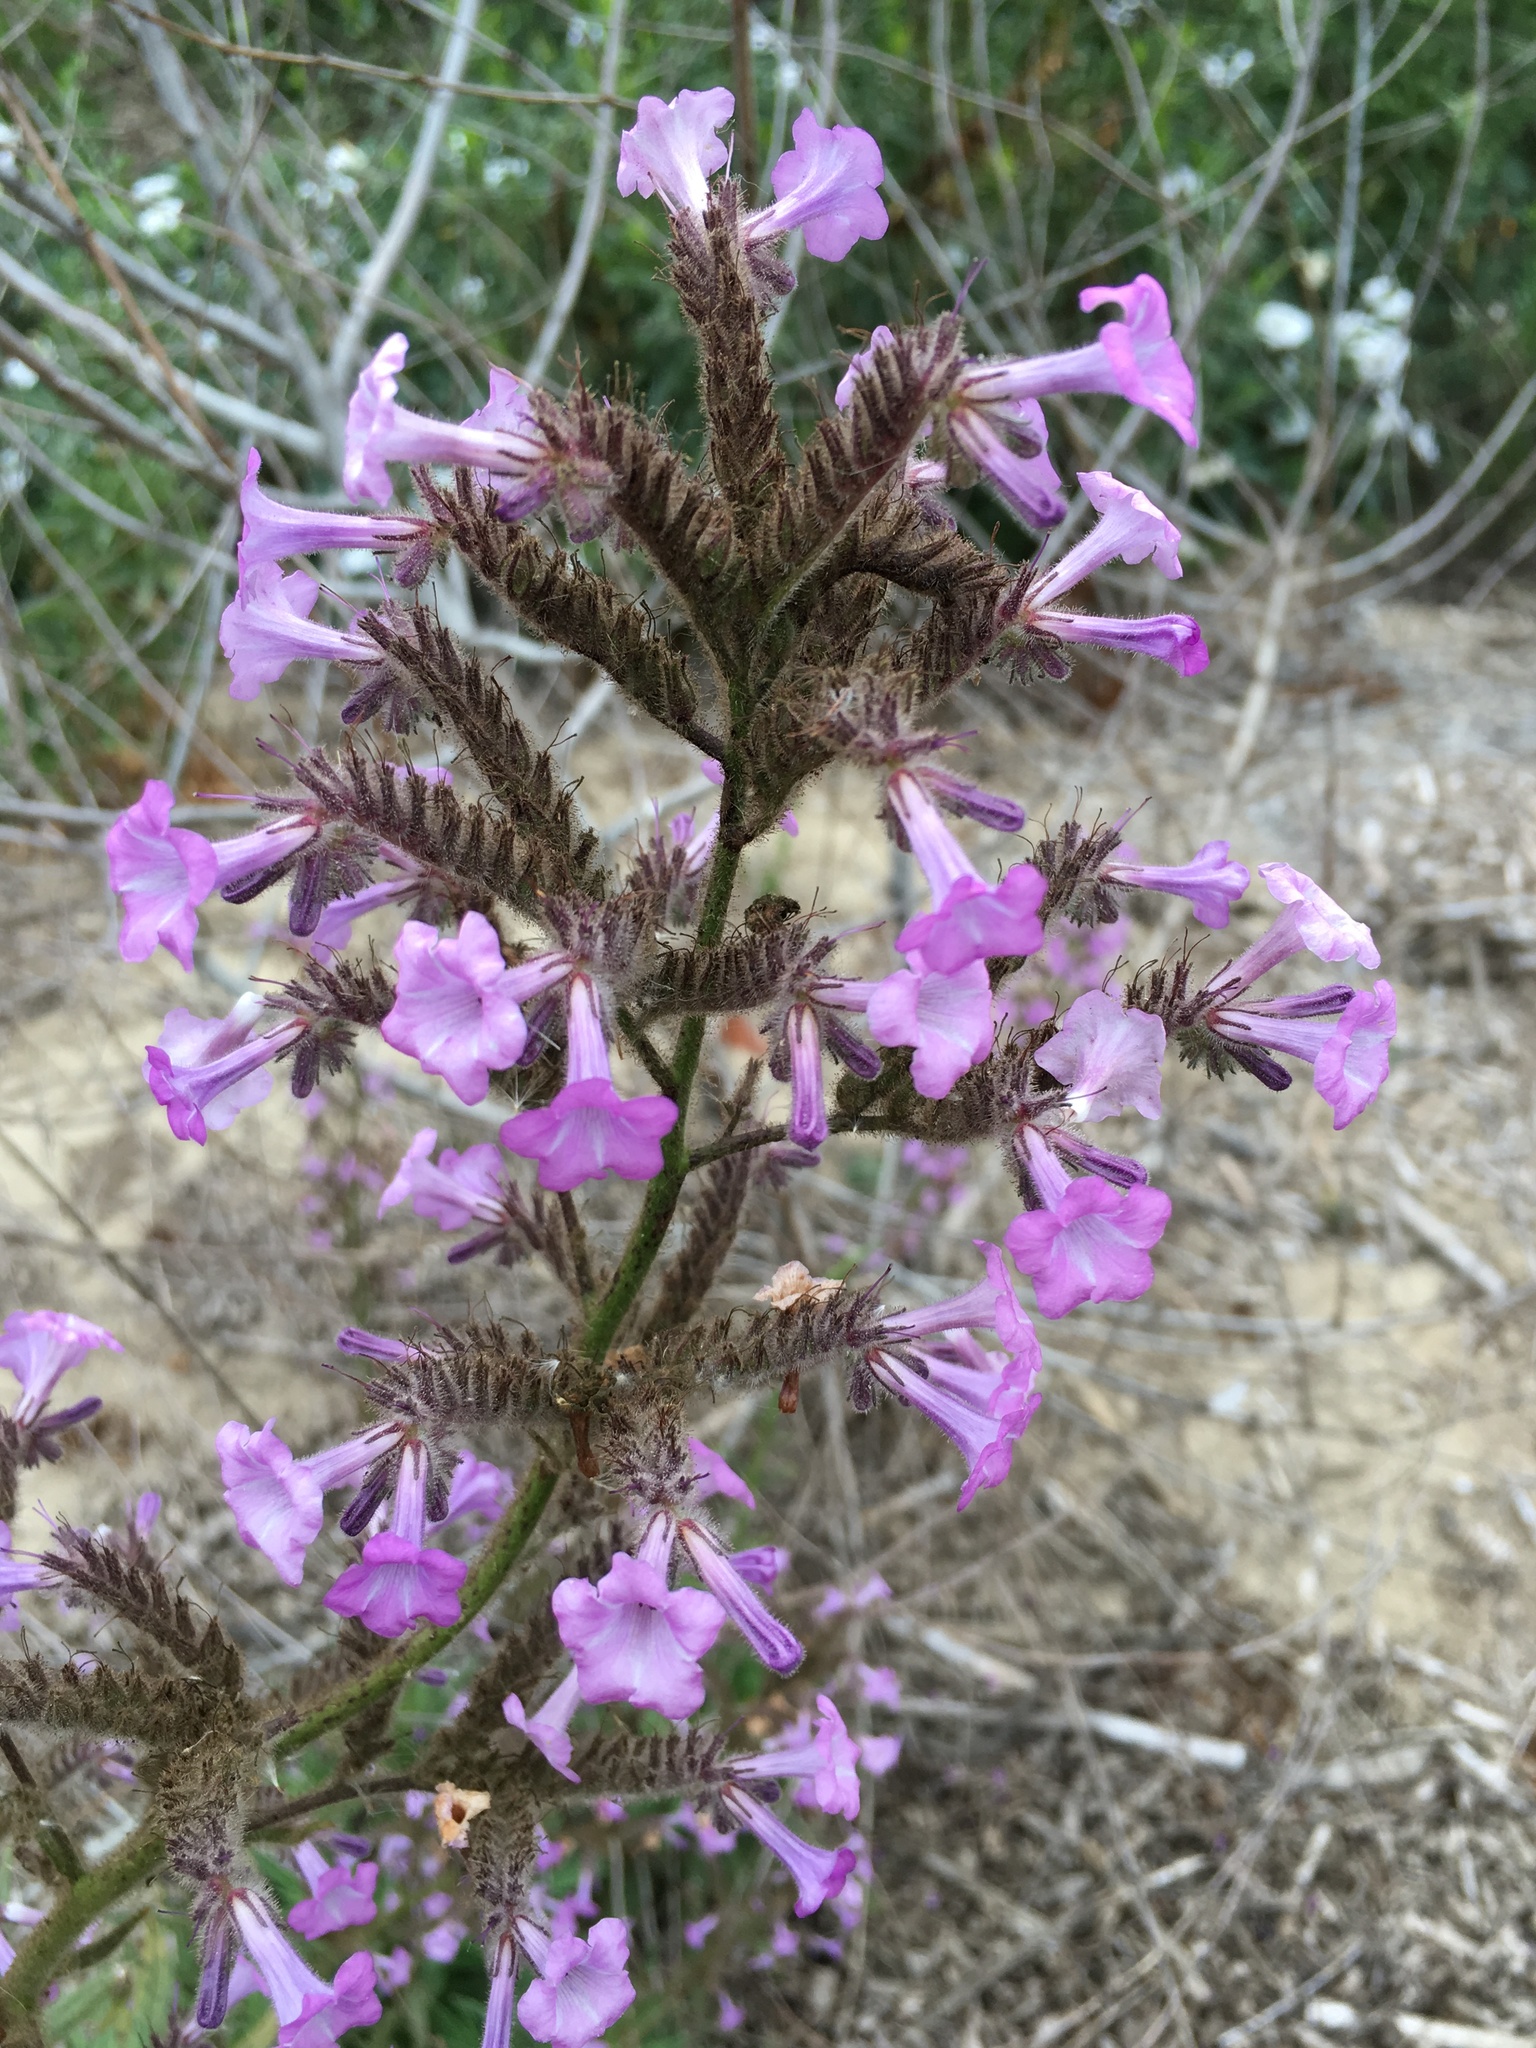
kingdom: Plantae
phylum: Tracheophyta
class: Magnoliopsida
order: Boraginales
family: Namaceae
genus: Turricula
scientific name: Turricula parryi
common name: Poodle-dog-bush
